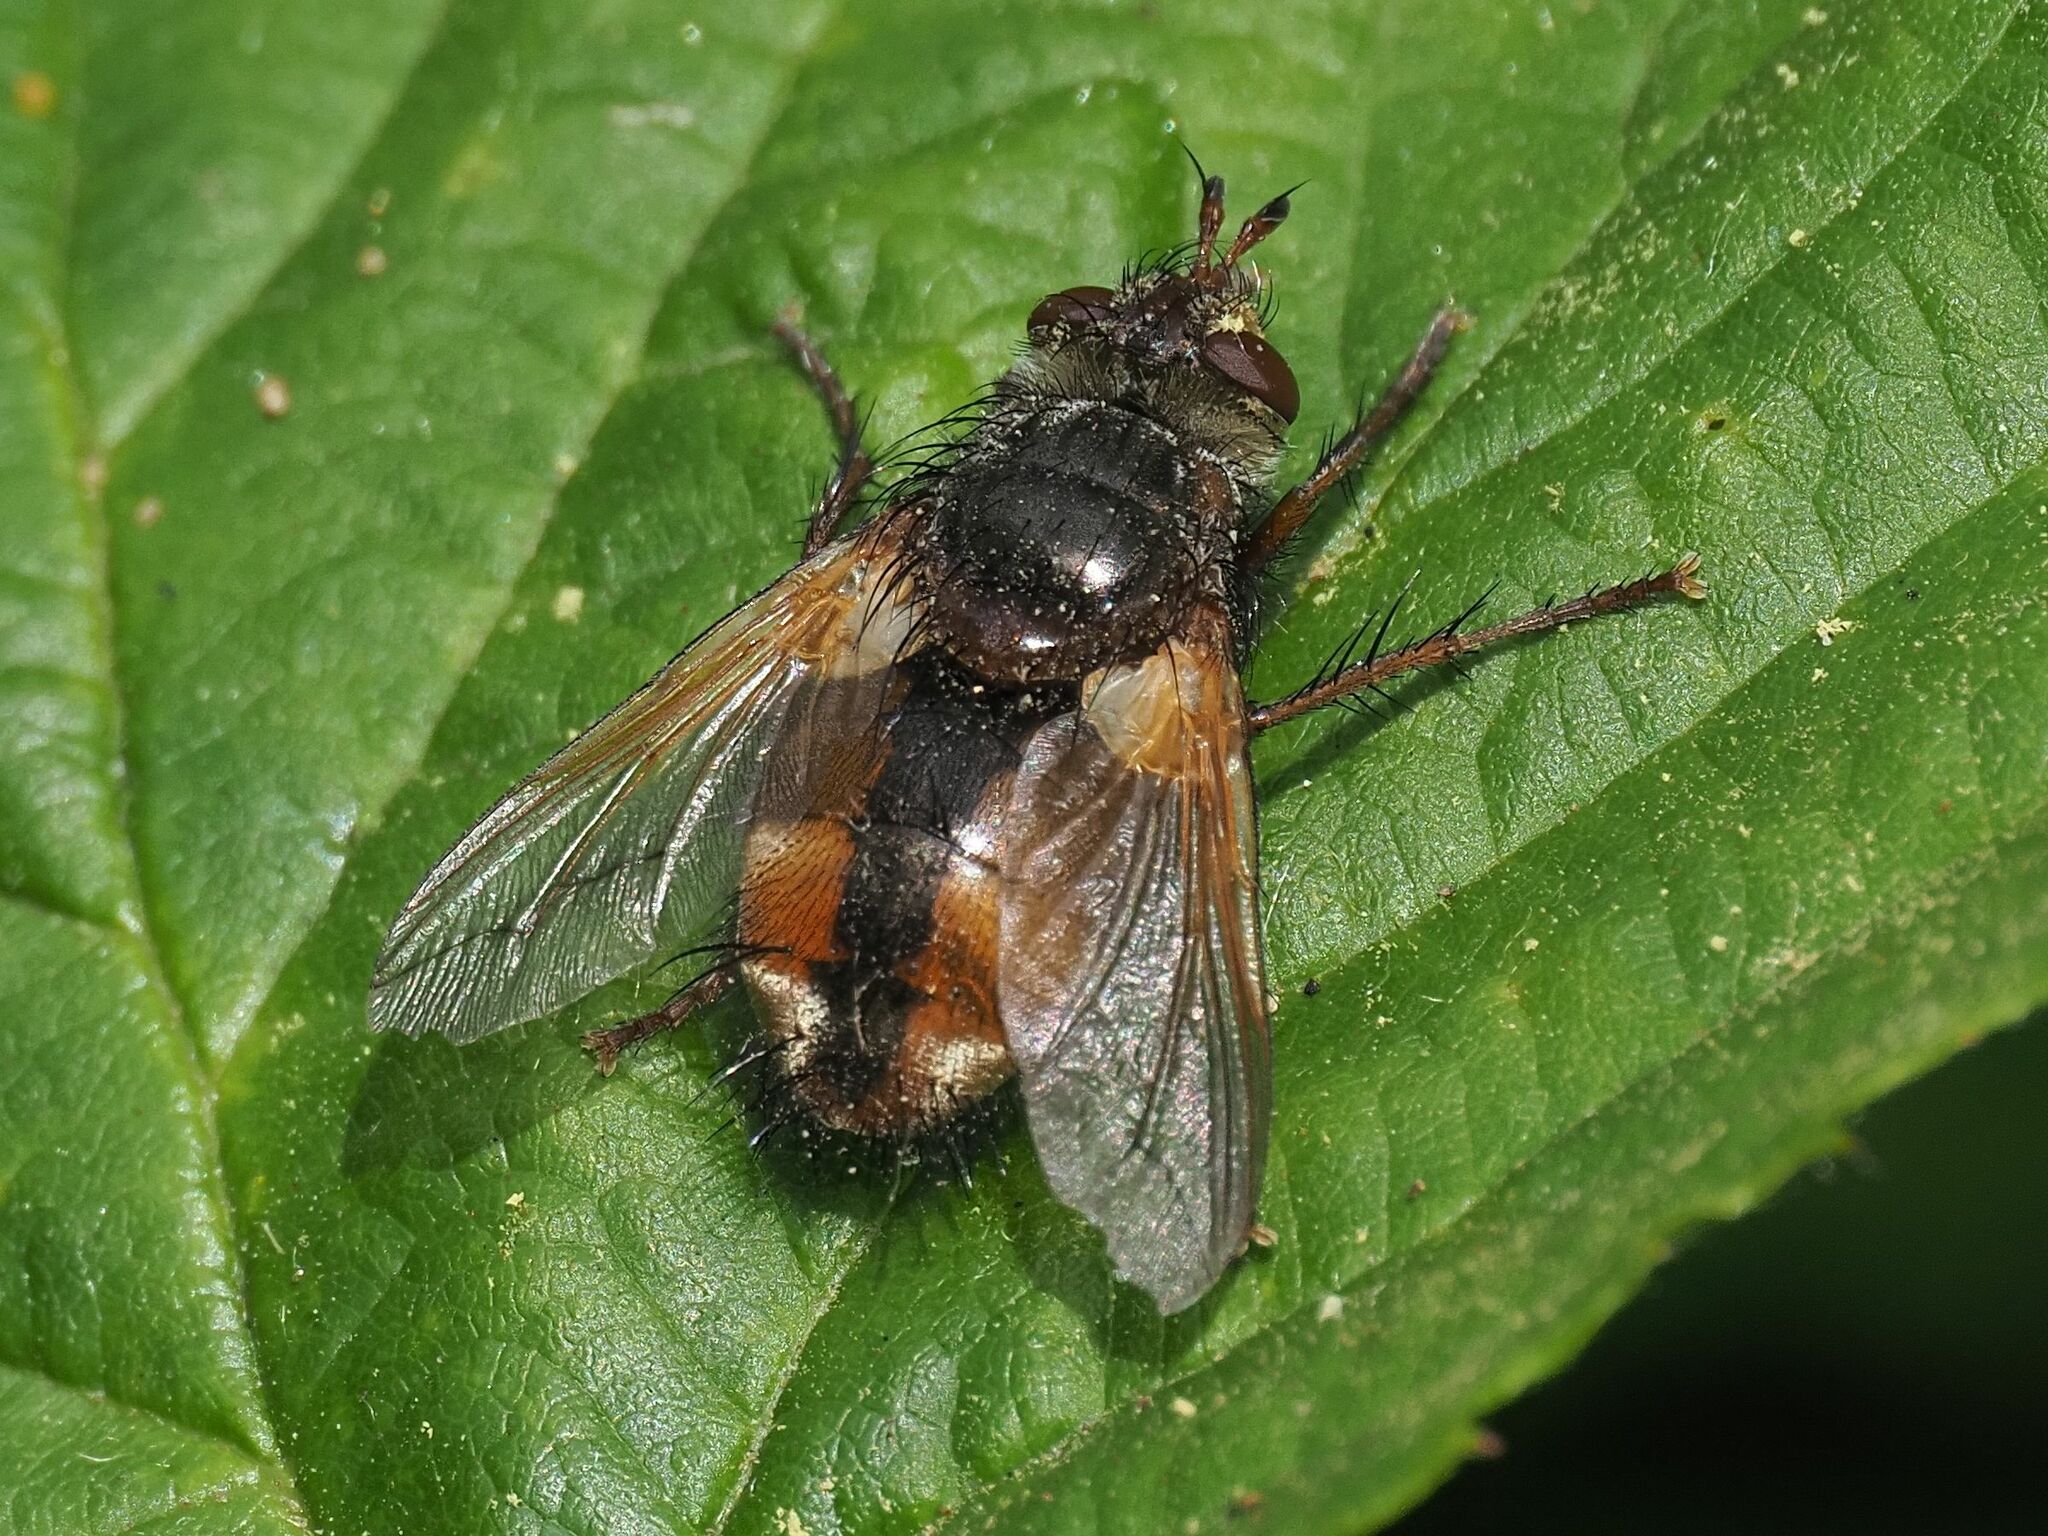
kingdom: Animalia
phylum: Arthropoda
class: Insecta
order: Diptera
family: Tachinidae
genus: Tachina
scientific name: Tachina fera
